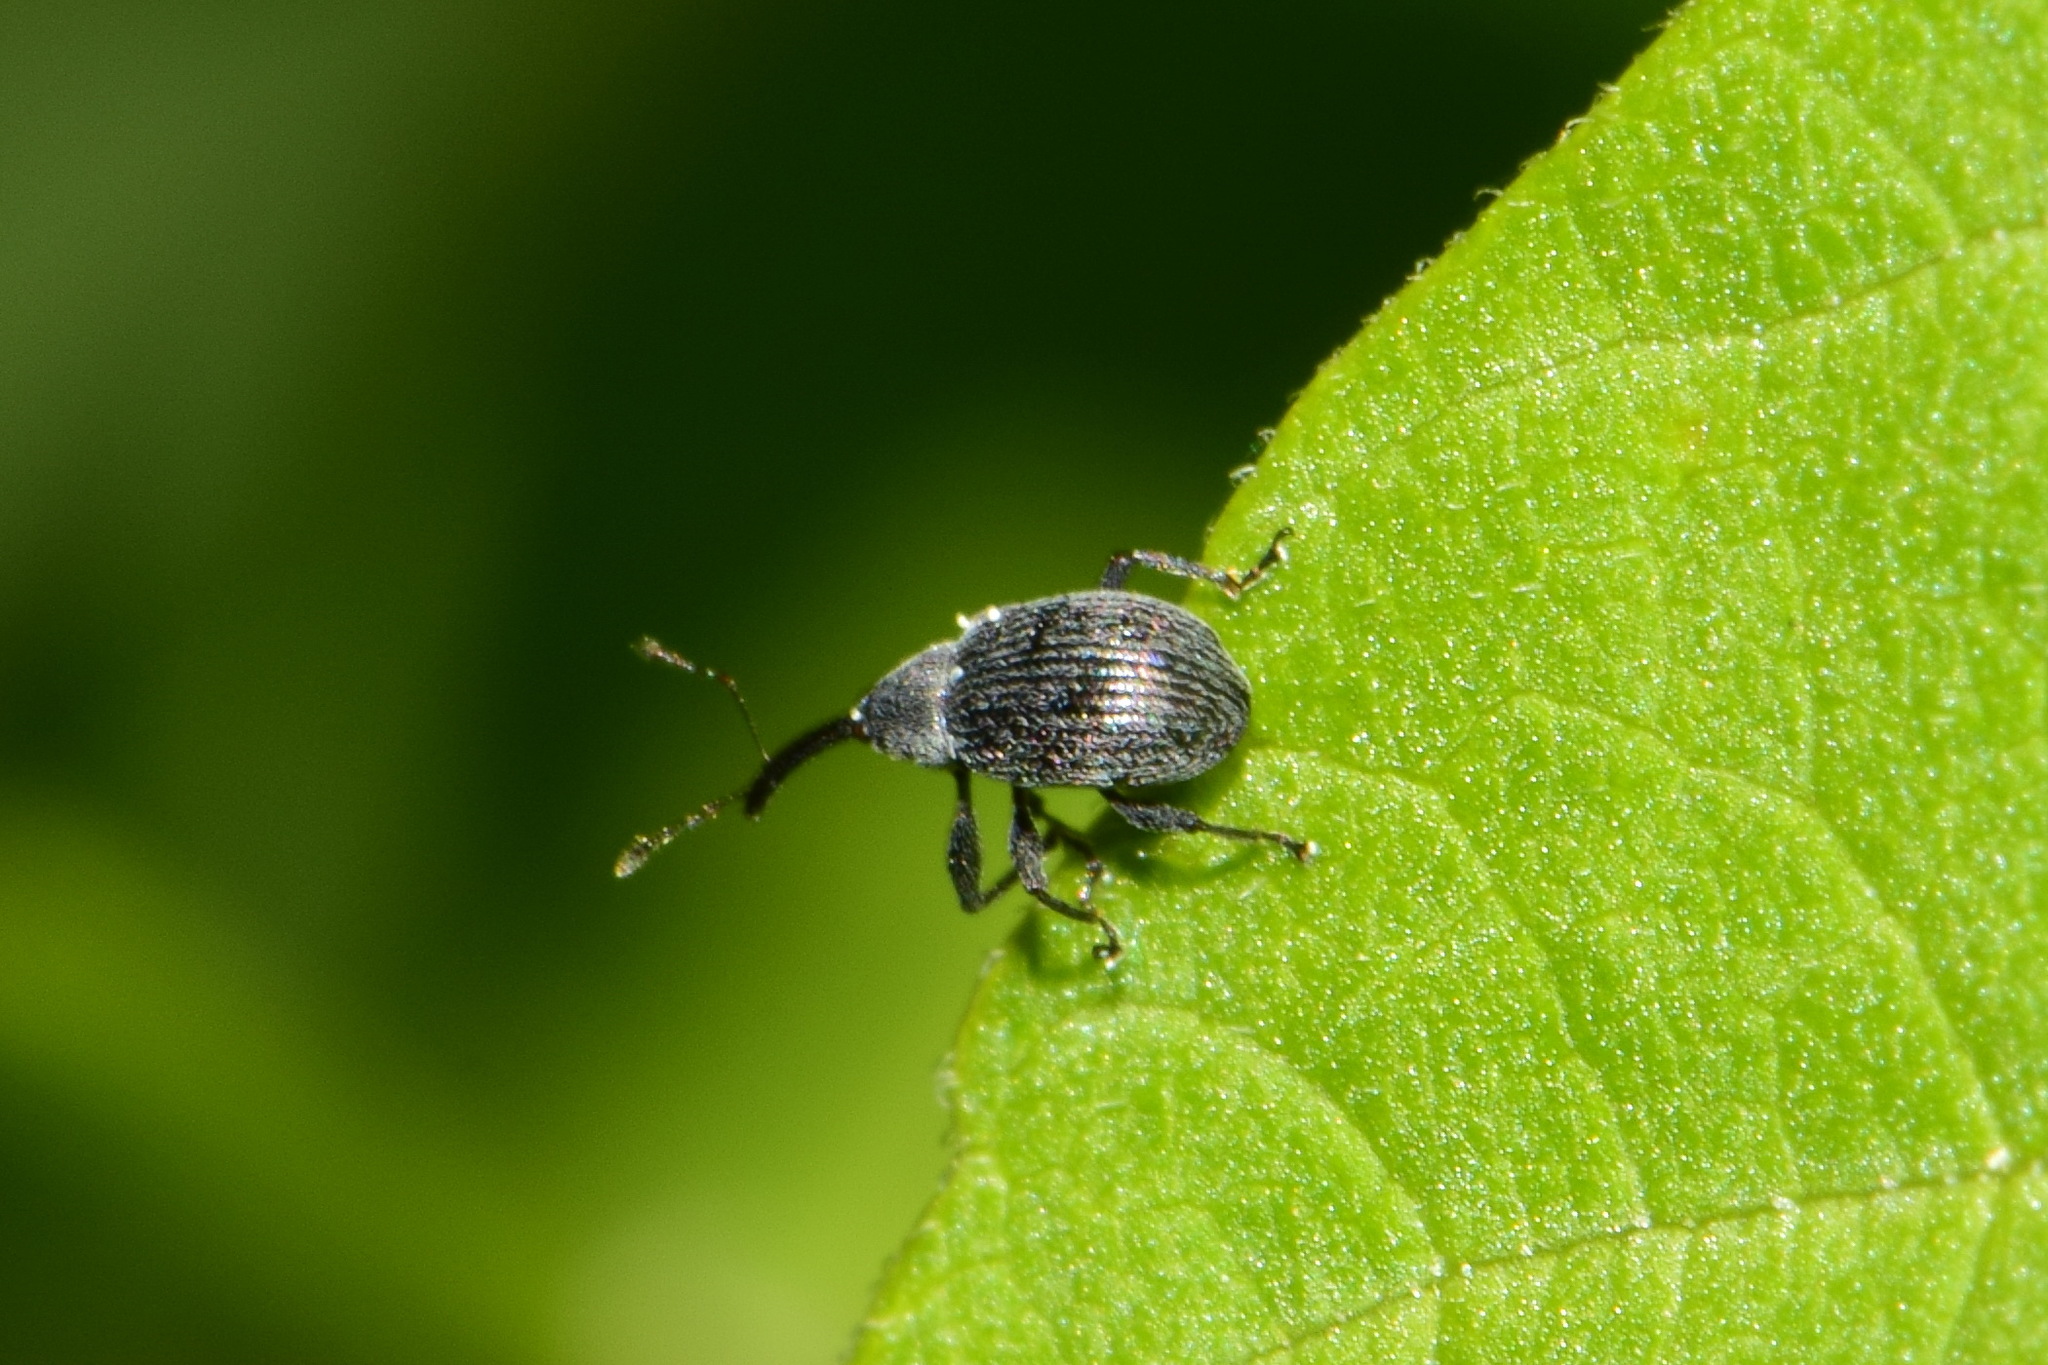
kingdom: Animalia
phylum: Arthropoda
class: Insecta
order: Coleoptera
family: Curculionidae
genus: Anthonomus
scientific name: Anthonomus rubi
